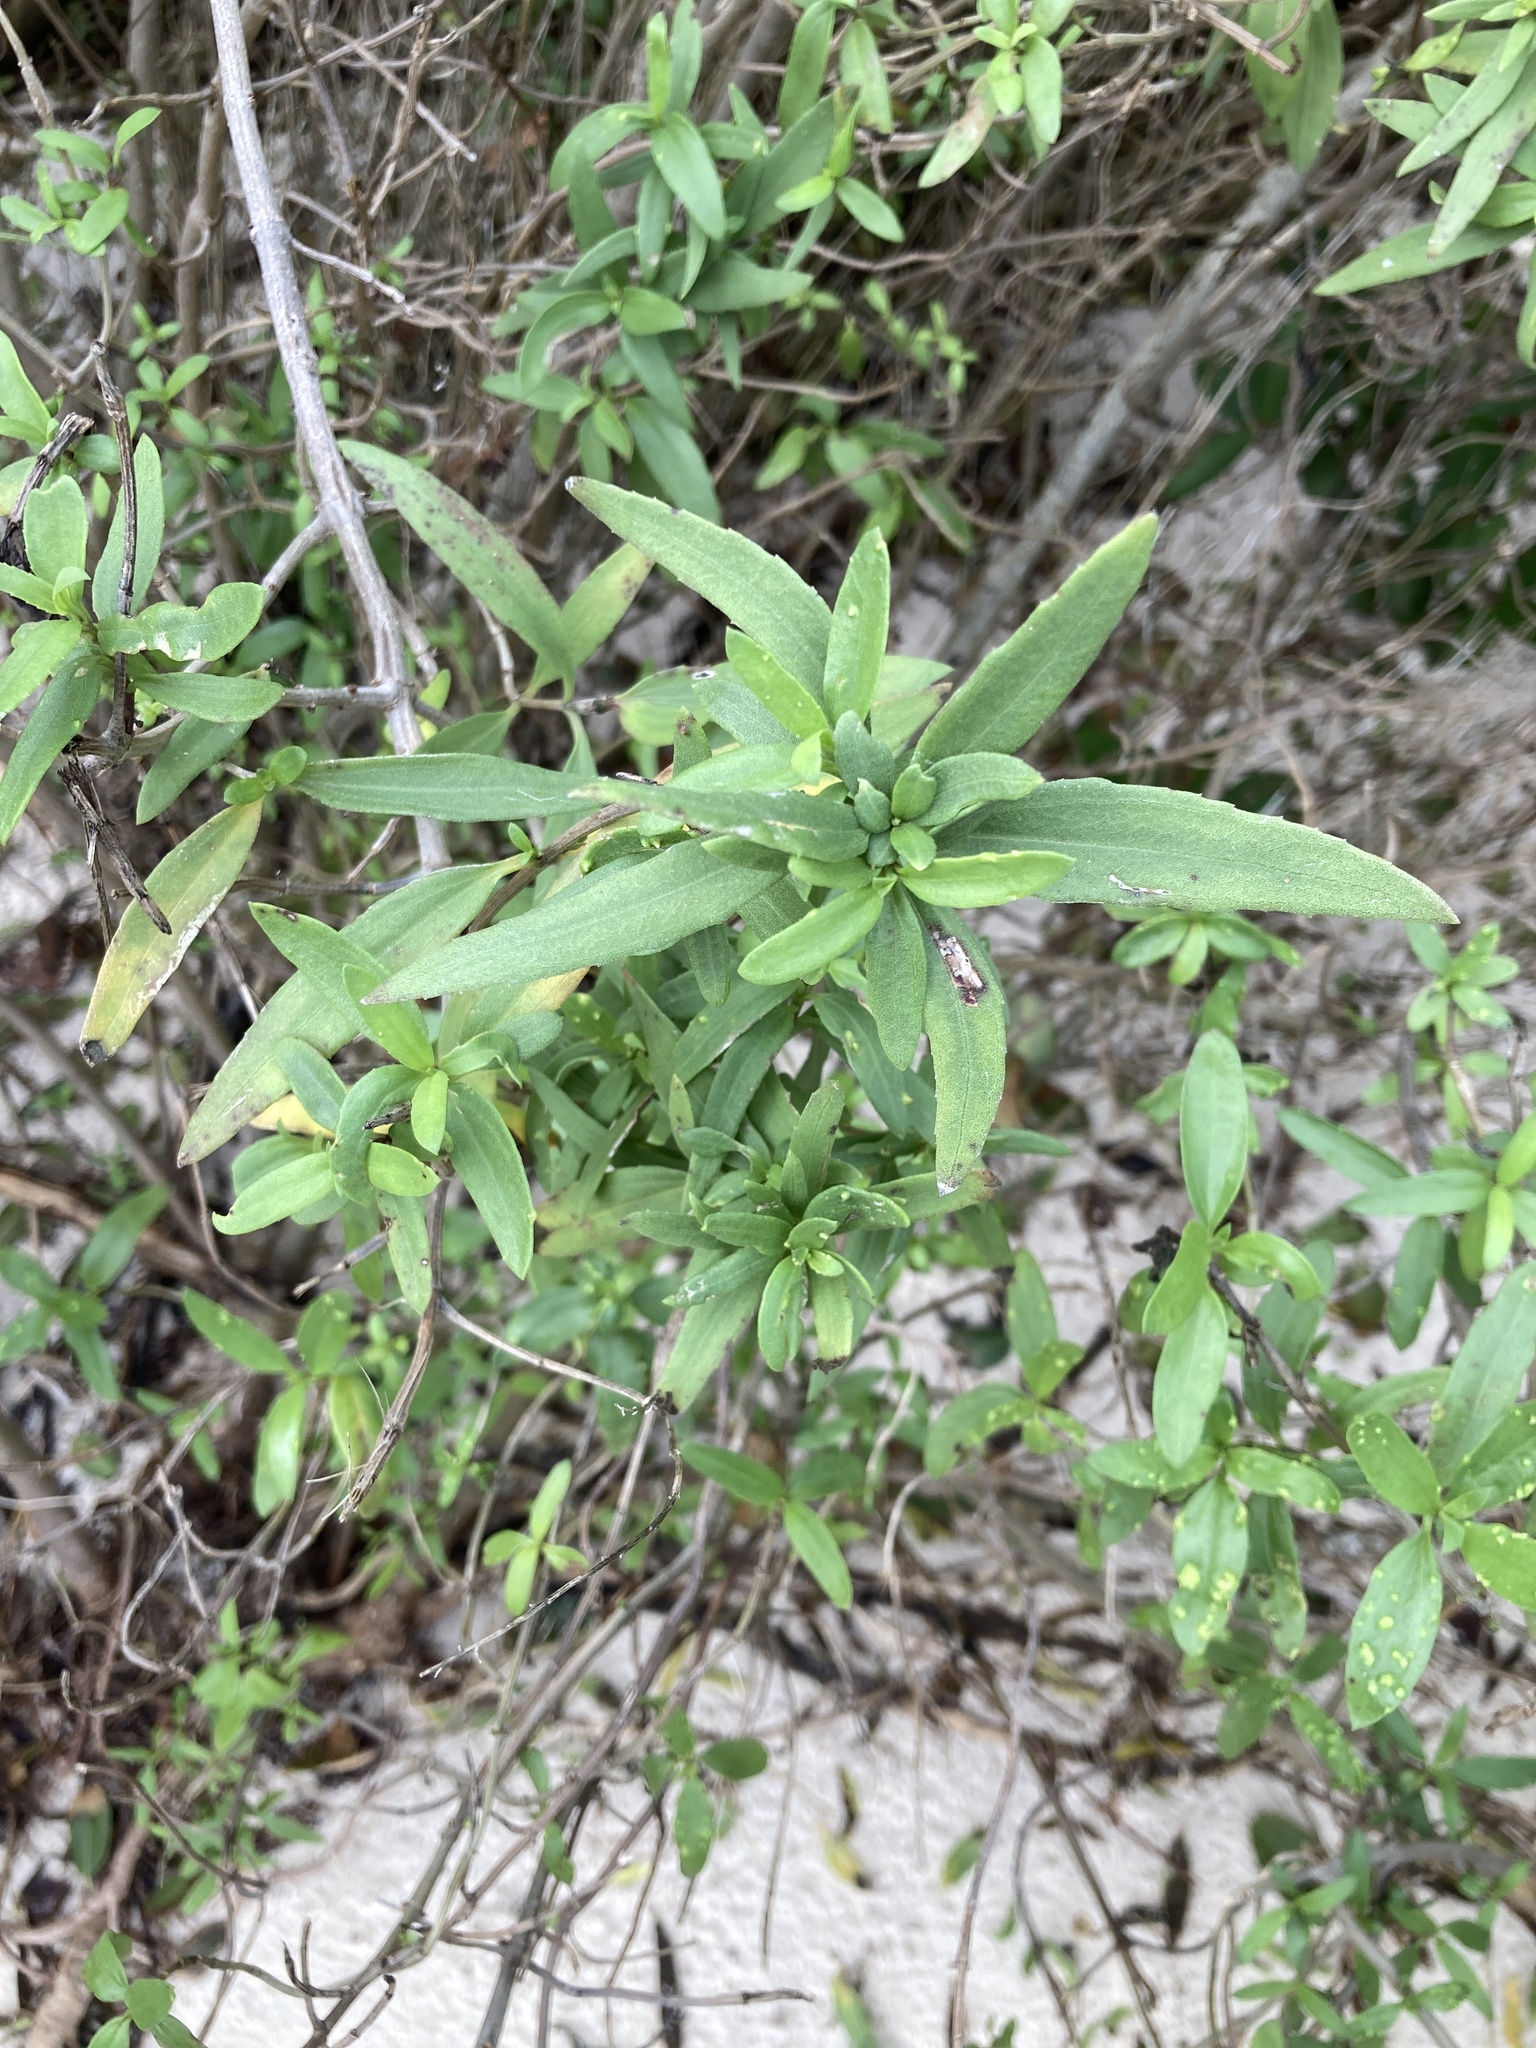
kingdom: Plantae
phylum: Tracheophyta
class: Magnoliopsida
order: Asterales
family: Asteraceae
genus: Iva
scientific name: Iva frutescens
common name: Big-leaved marsh-elder
